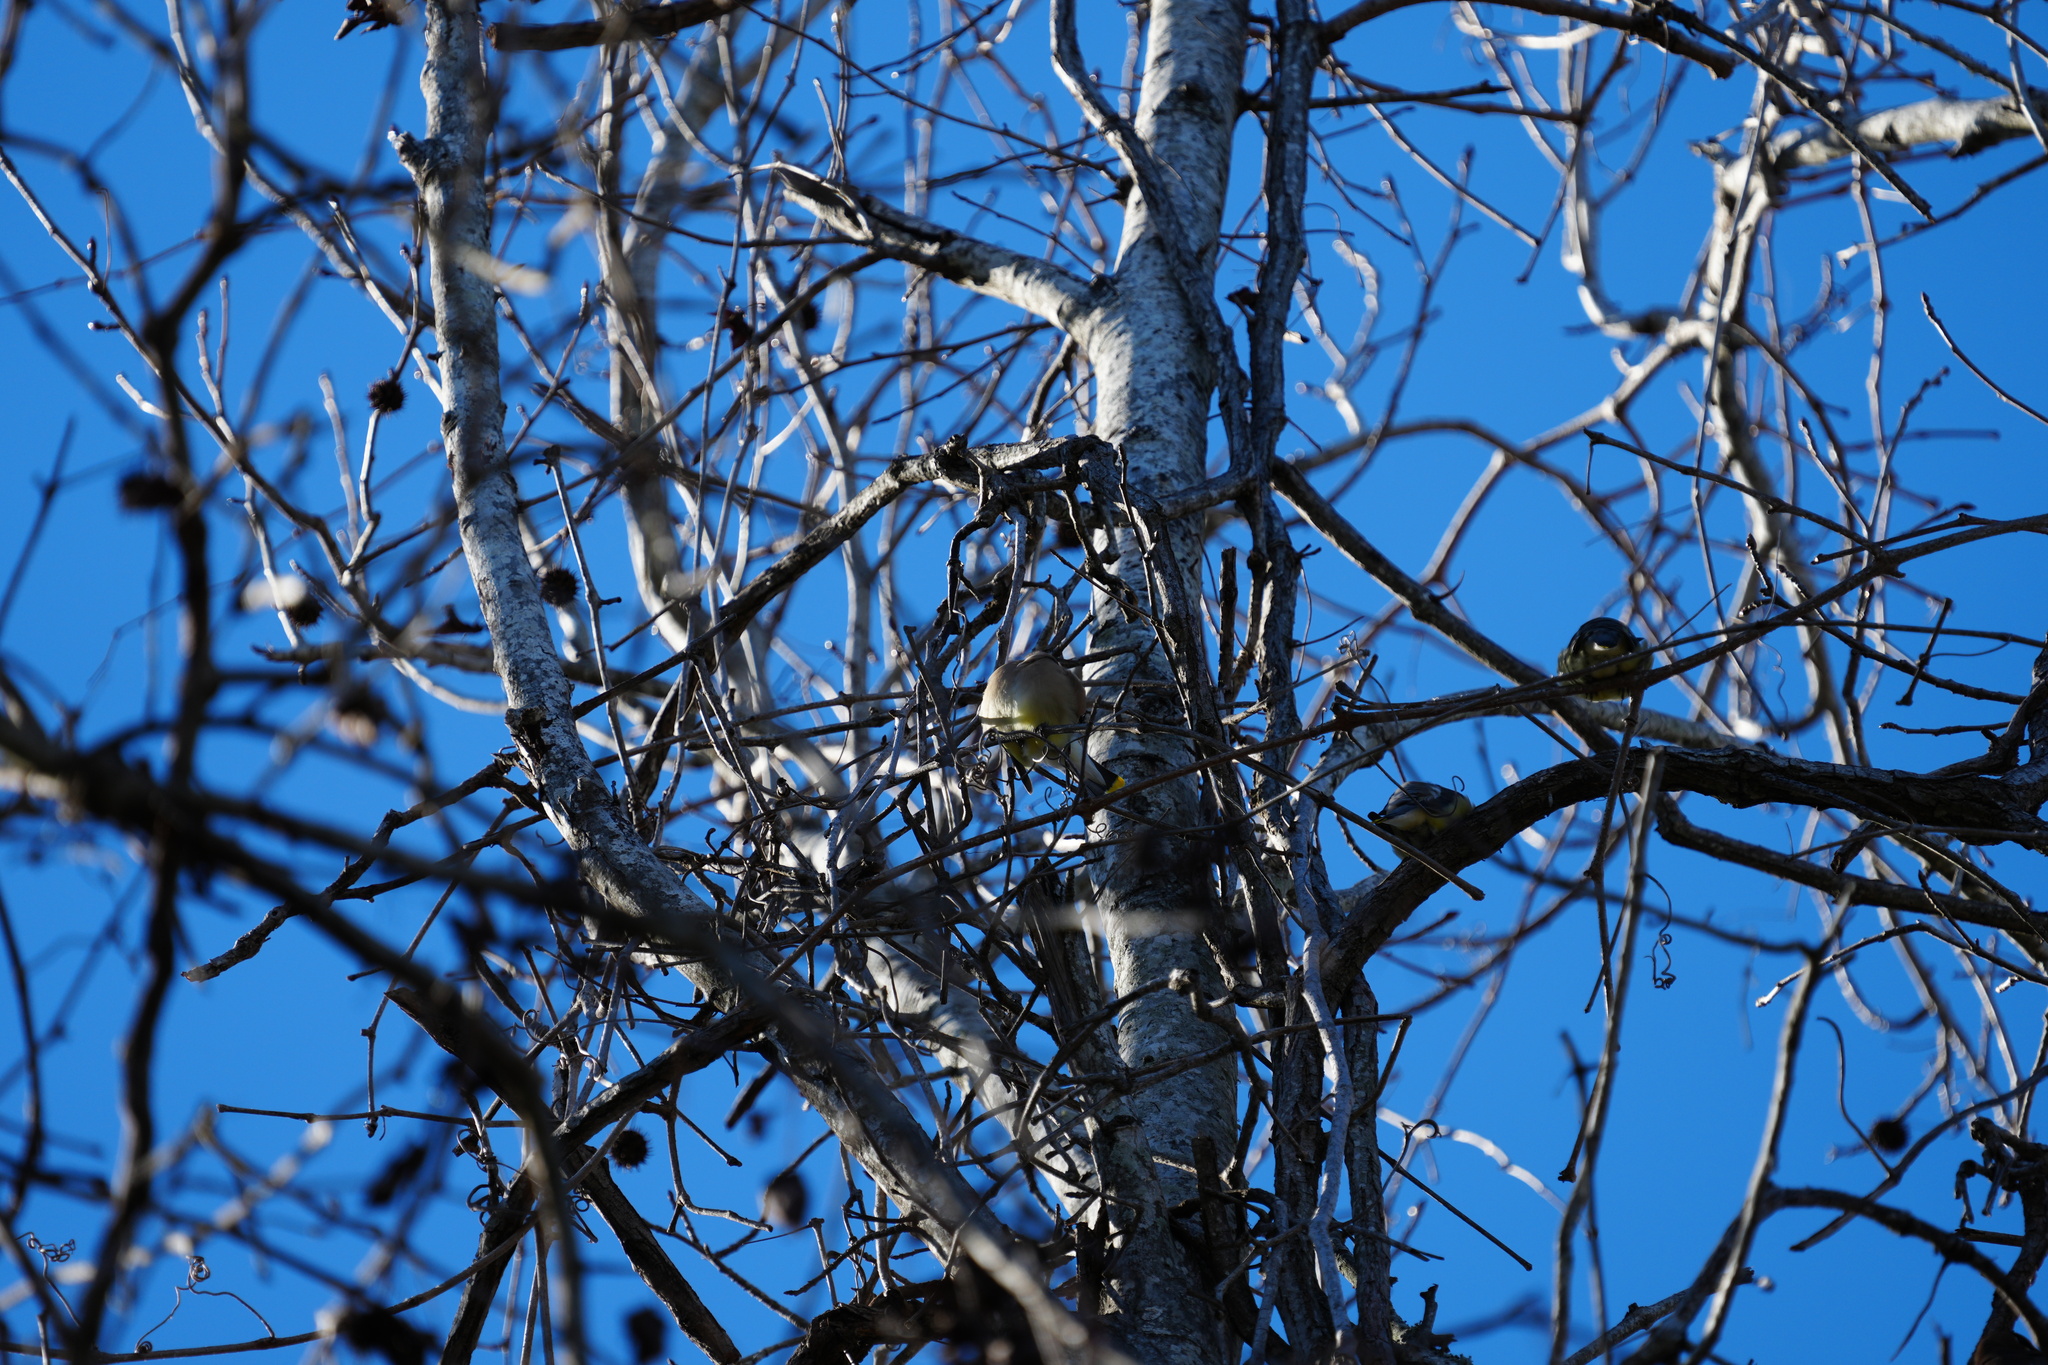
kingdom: Animalia
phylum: Chordata
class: Aves
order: Passeriformes
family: Bombycillidae
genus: Bombycilla
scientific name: Bombycilla cedrorum
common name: Cedar waxwing
